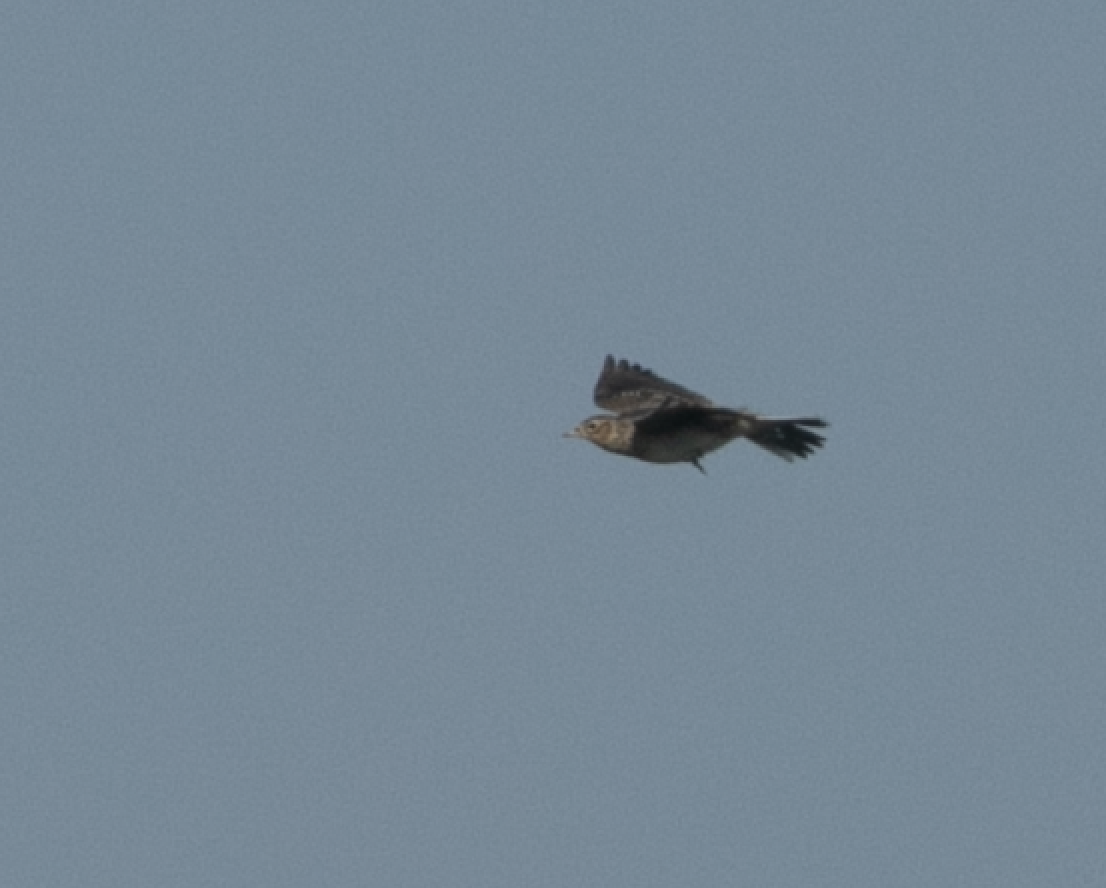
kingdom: Animalia
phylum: Chordata
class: Aves
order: Passeriformes
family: Alaudidae
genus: Alauda
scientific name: Alauda arvensis
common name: Eurasian skylark
